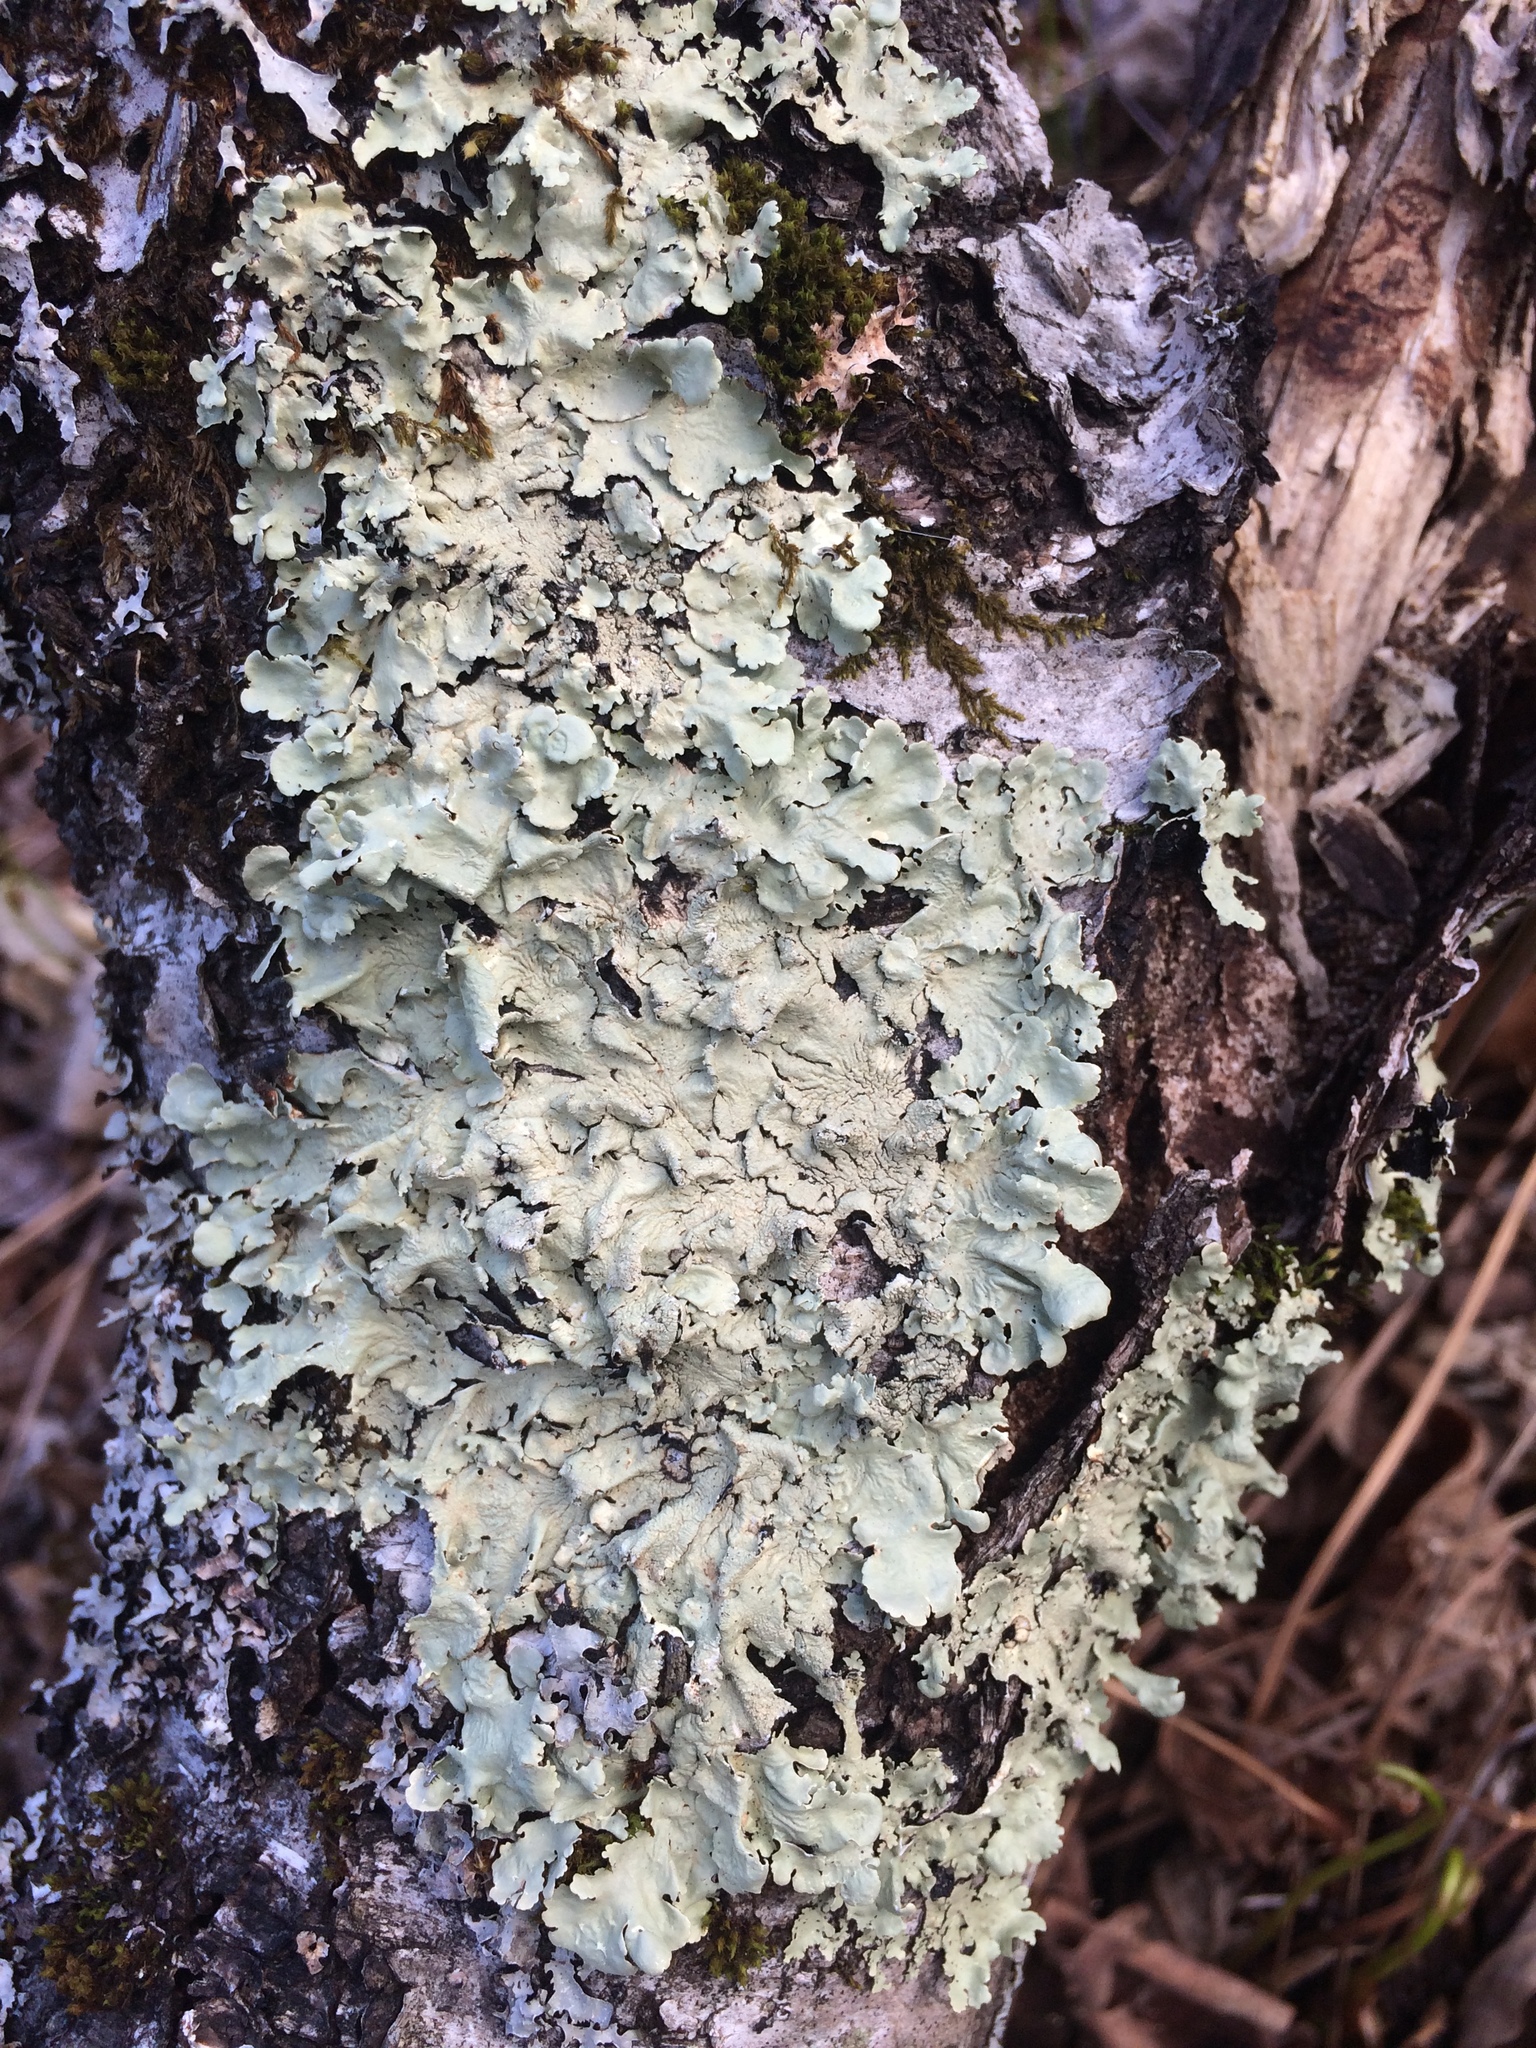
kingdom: Fungi
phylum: Ascomycota
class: Lecanoromycetes
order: Lecanorales
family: Parmeliaceae
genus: Flavoparmelia
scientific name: Flavoparmelia caperata
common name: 40-mile per hour lichen
